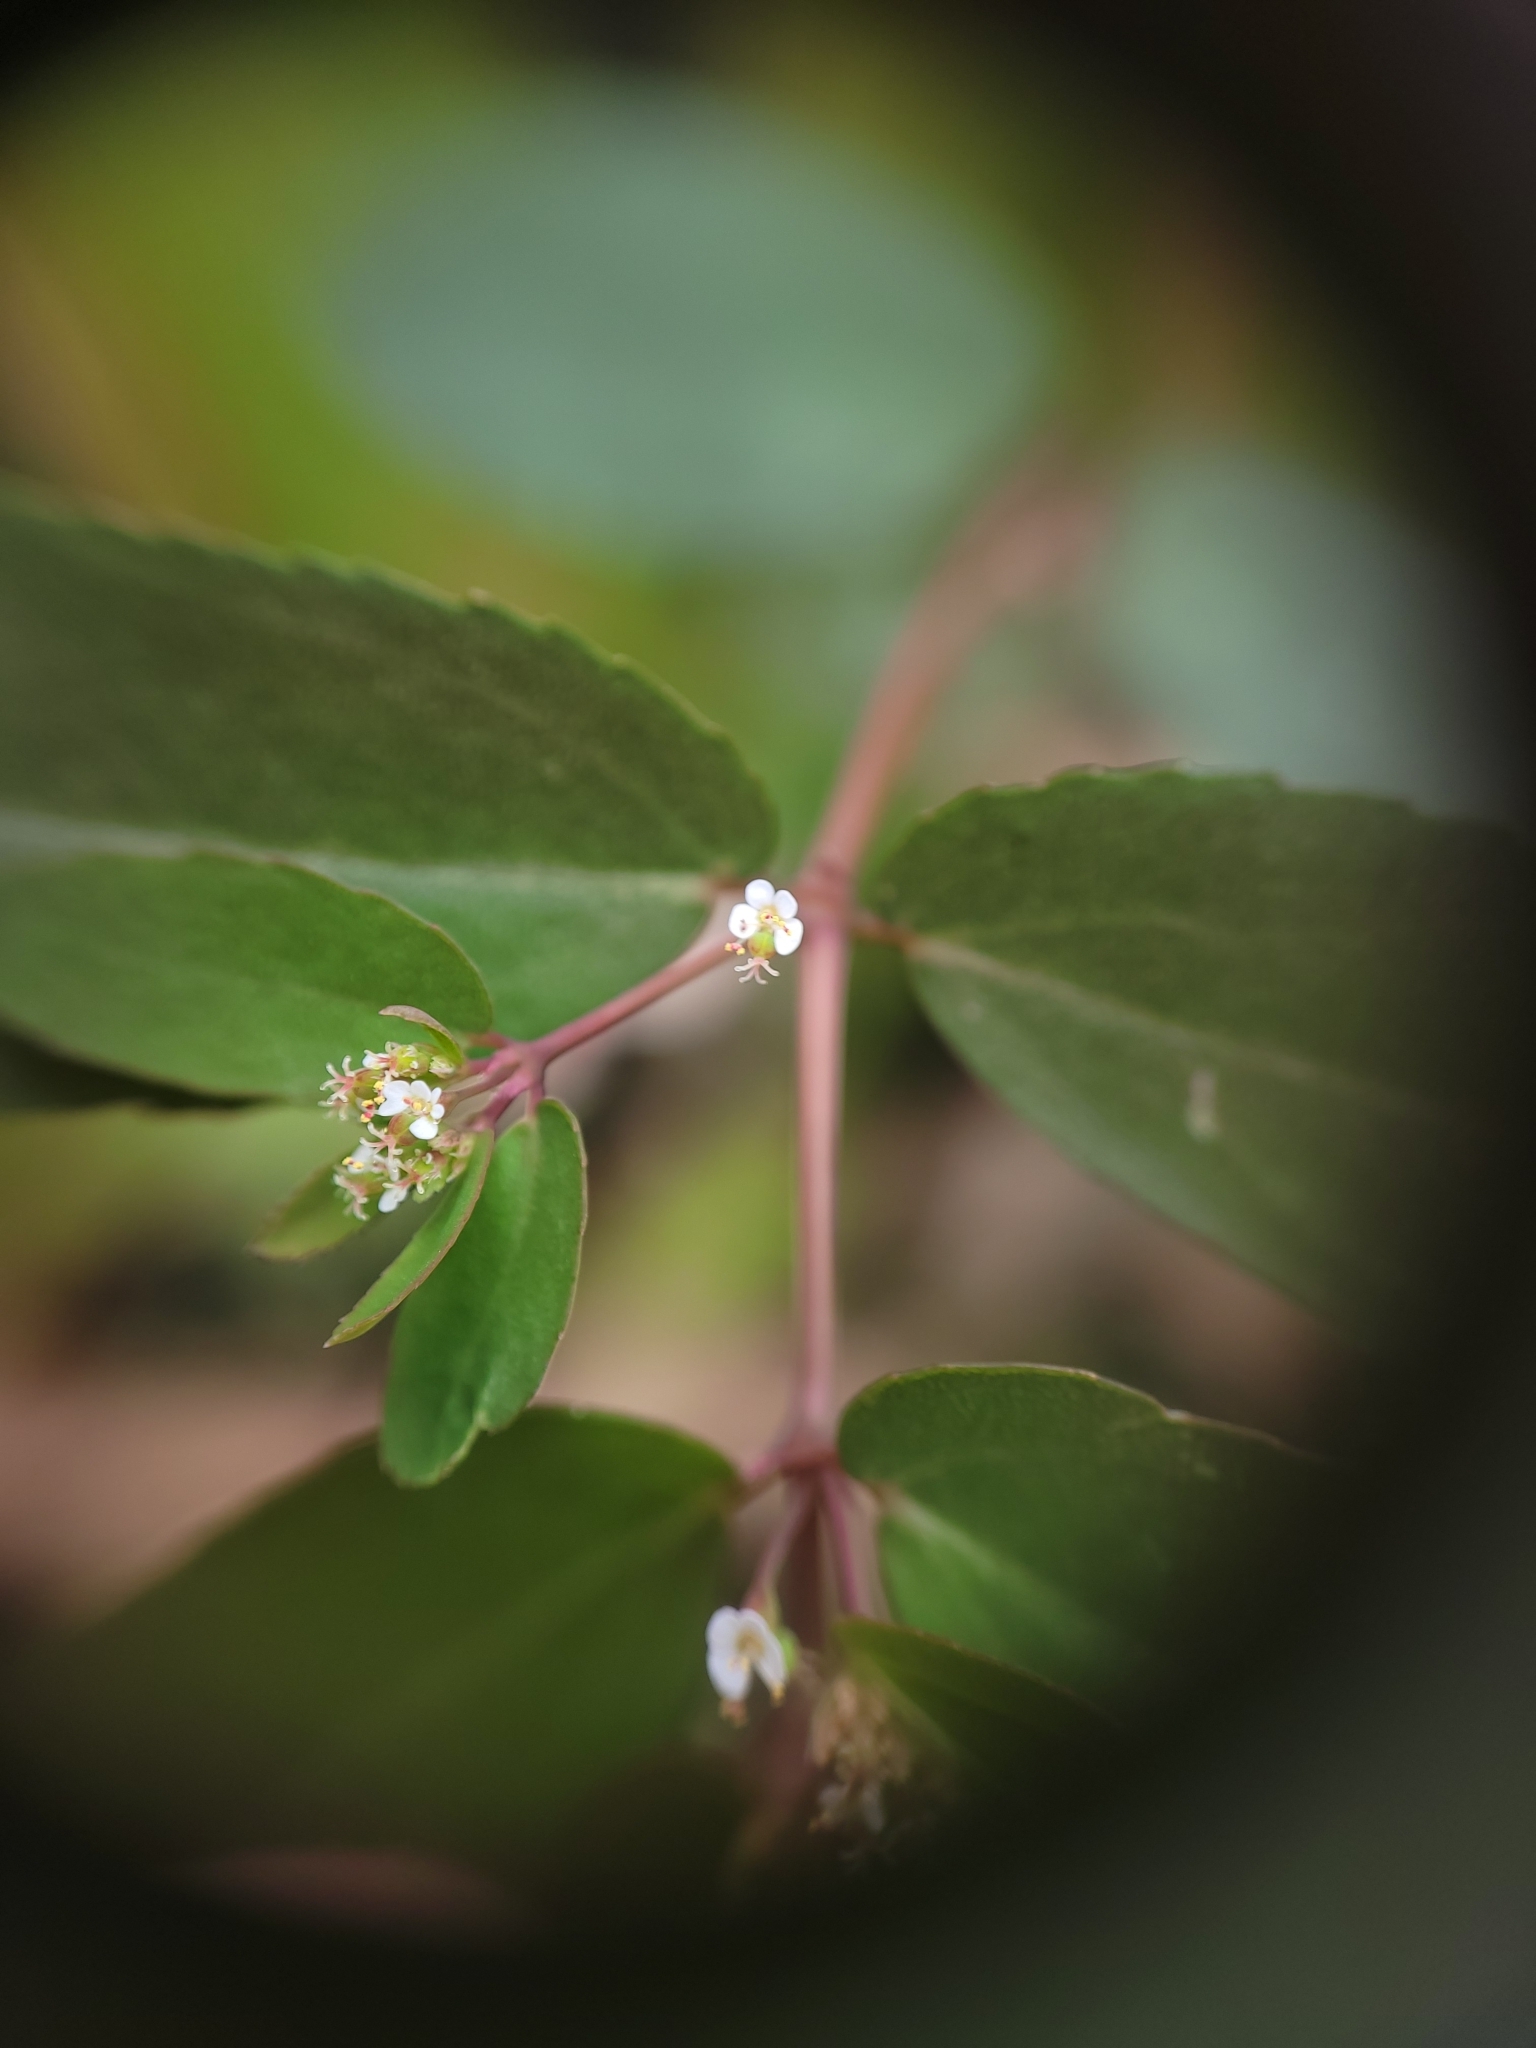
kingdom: Plantae
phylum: Tracheophyta
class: Magnoliopsida
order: Malpighiales
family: Euphorbiaceae
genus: Euphorbia
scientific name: Euphorbia hypericifolia
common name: Graceful sandmat
